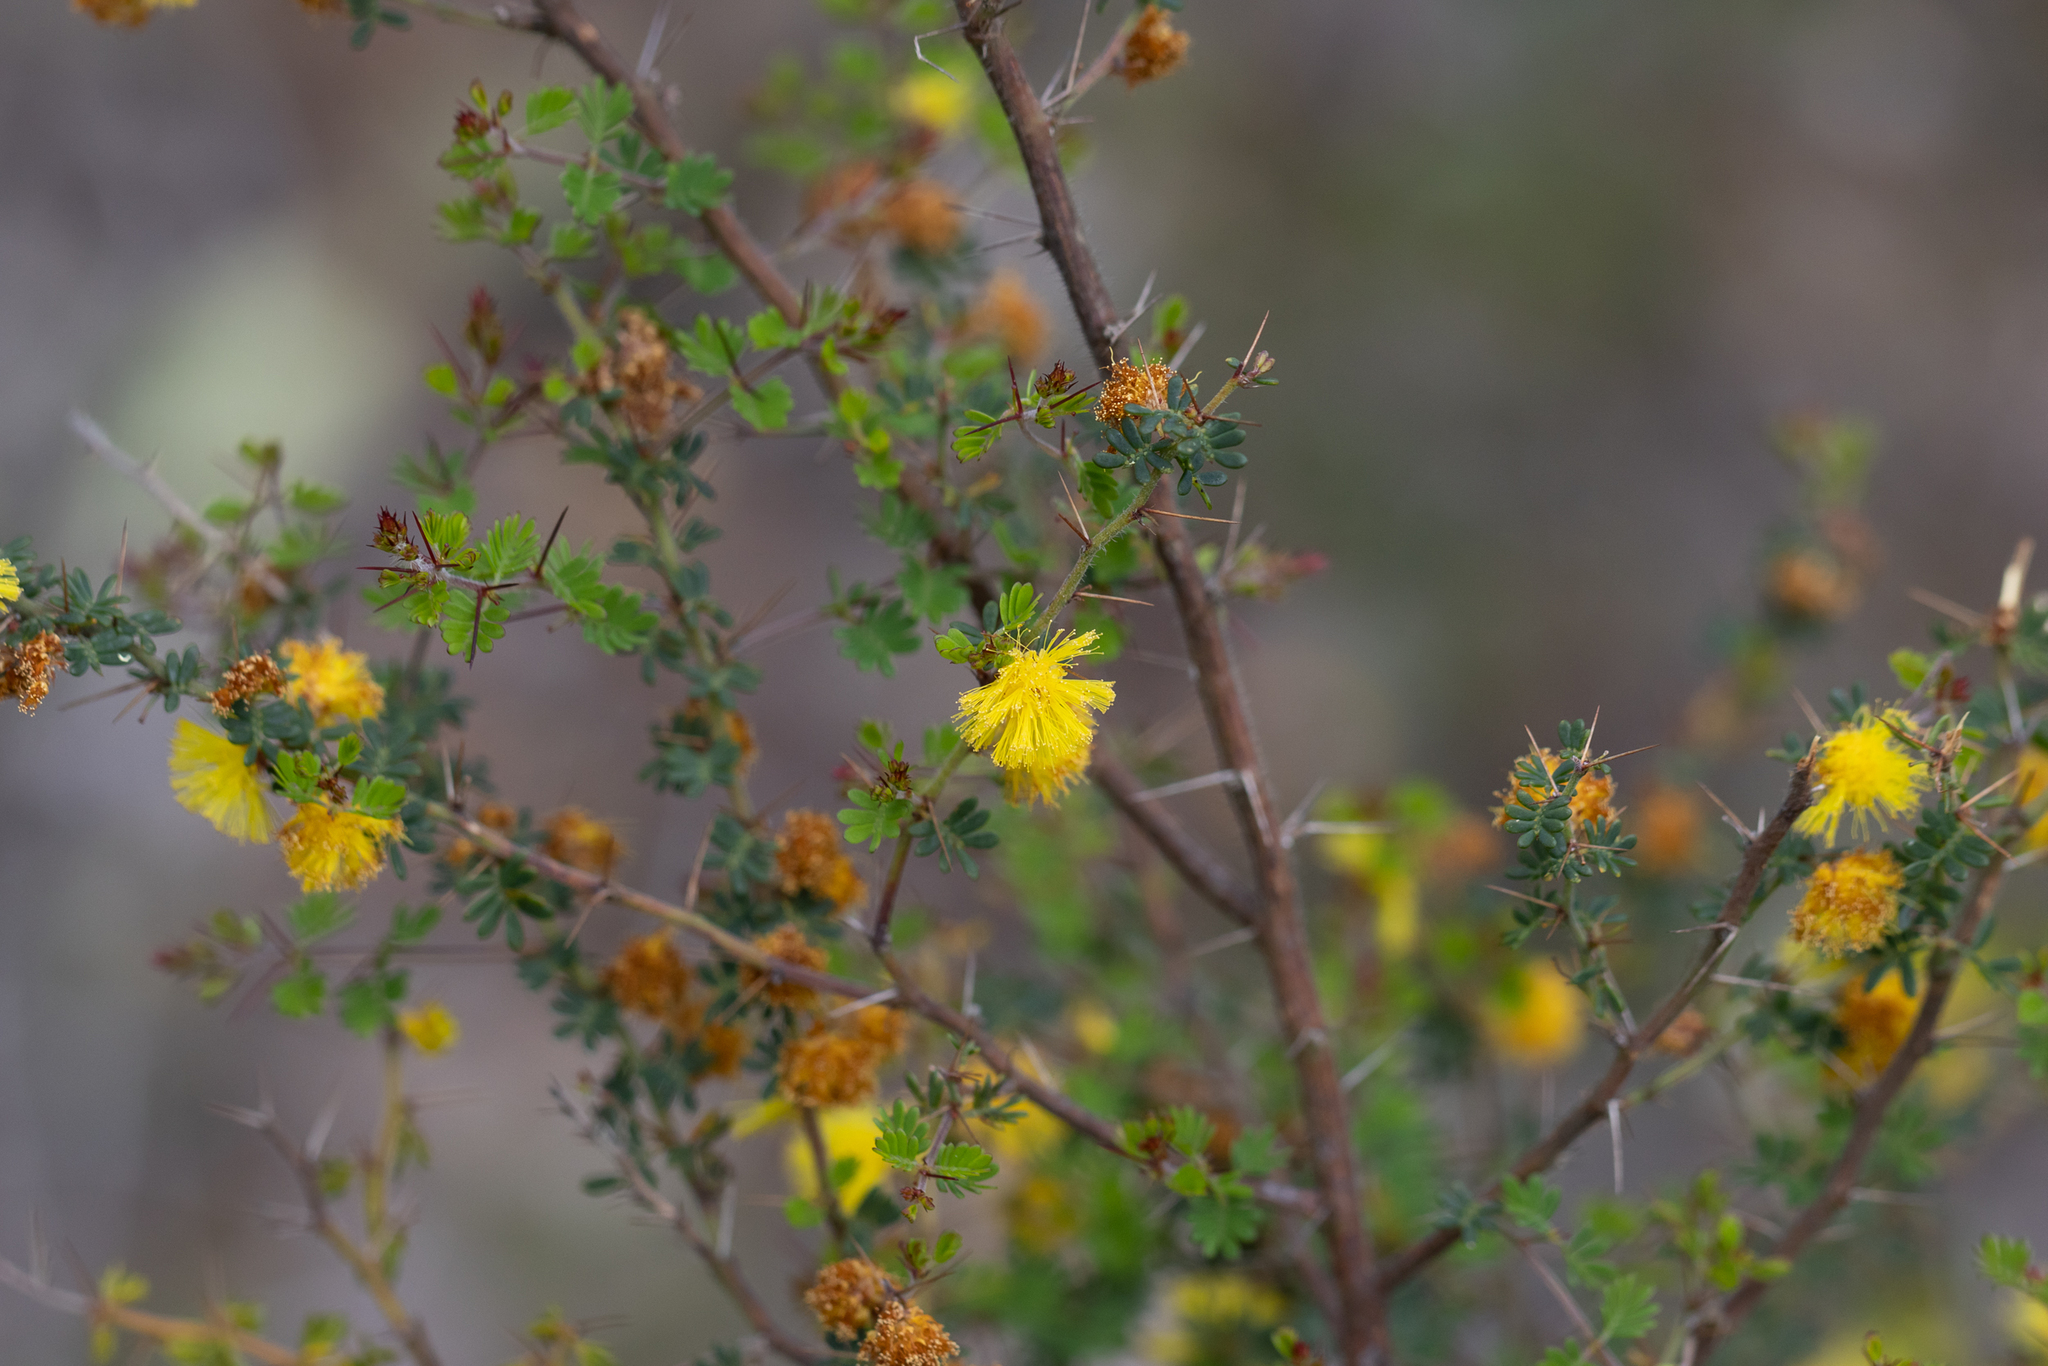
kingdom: Plantae
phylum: Tracheophyta
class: Magnoliopsida
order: Fabales
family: Fabaceae
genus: Acacia
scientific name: Acacia pulchella
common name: Prickly moses
